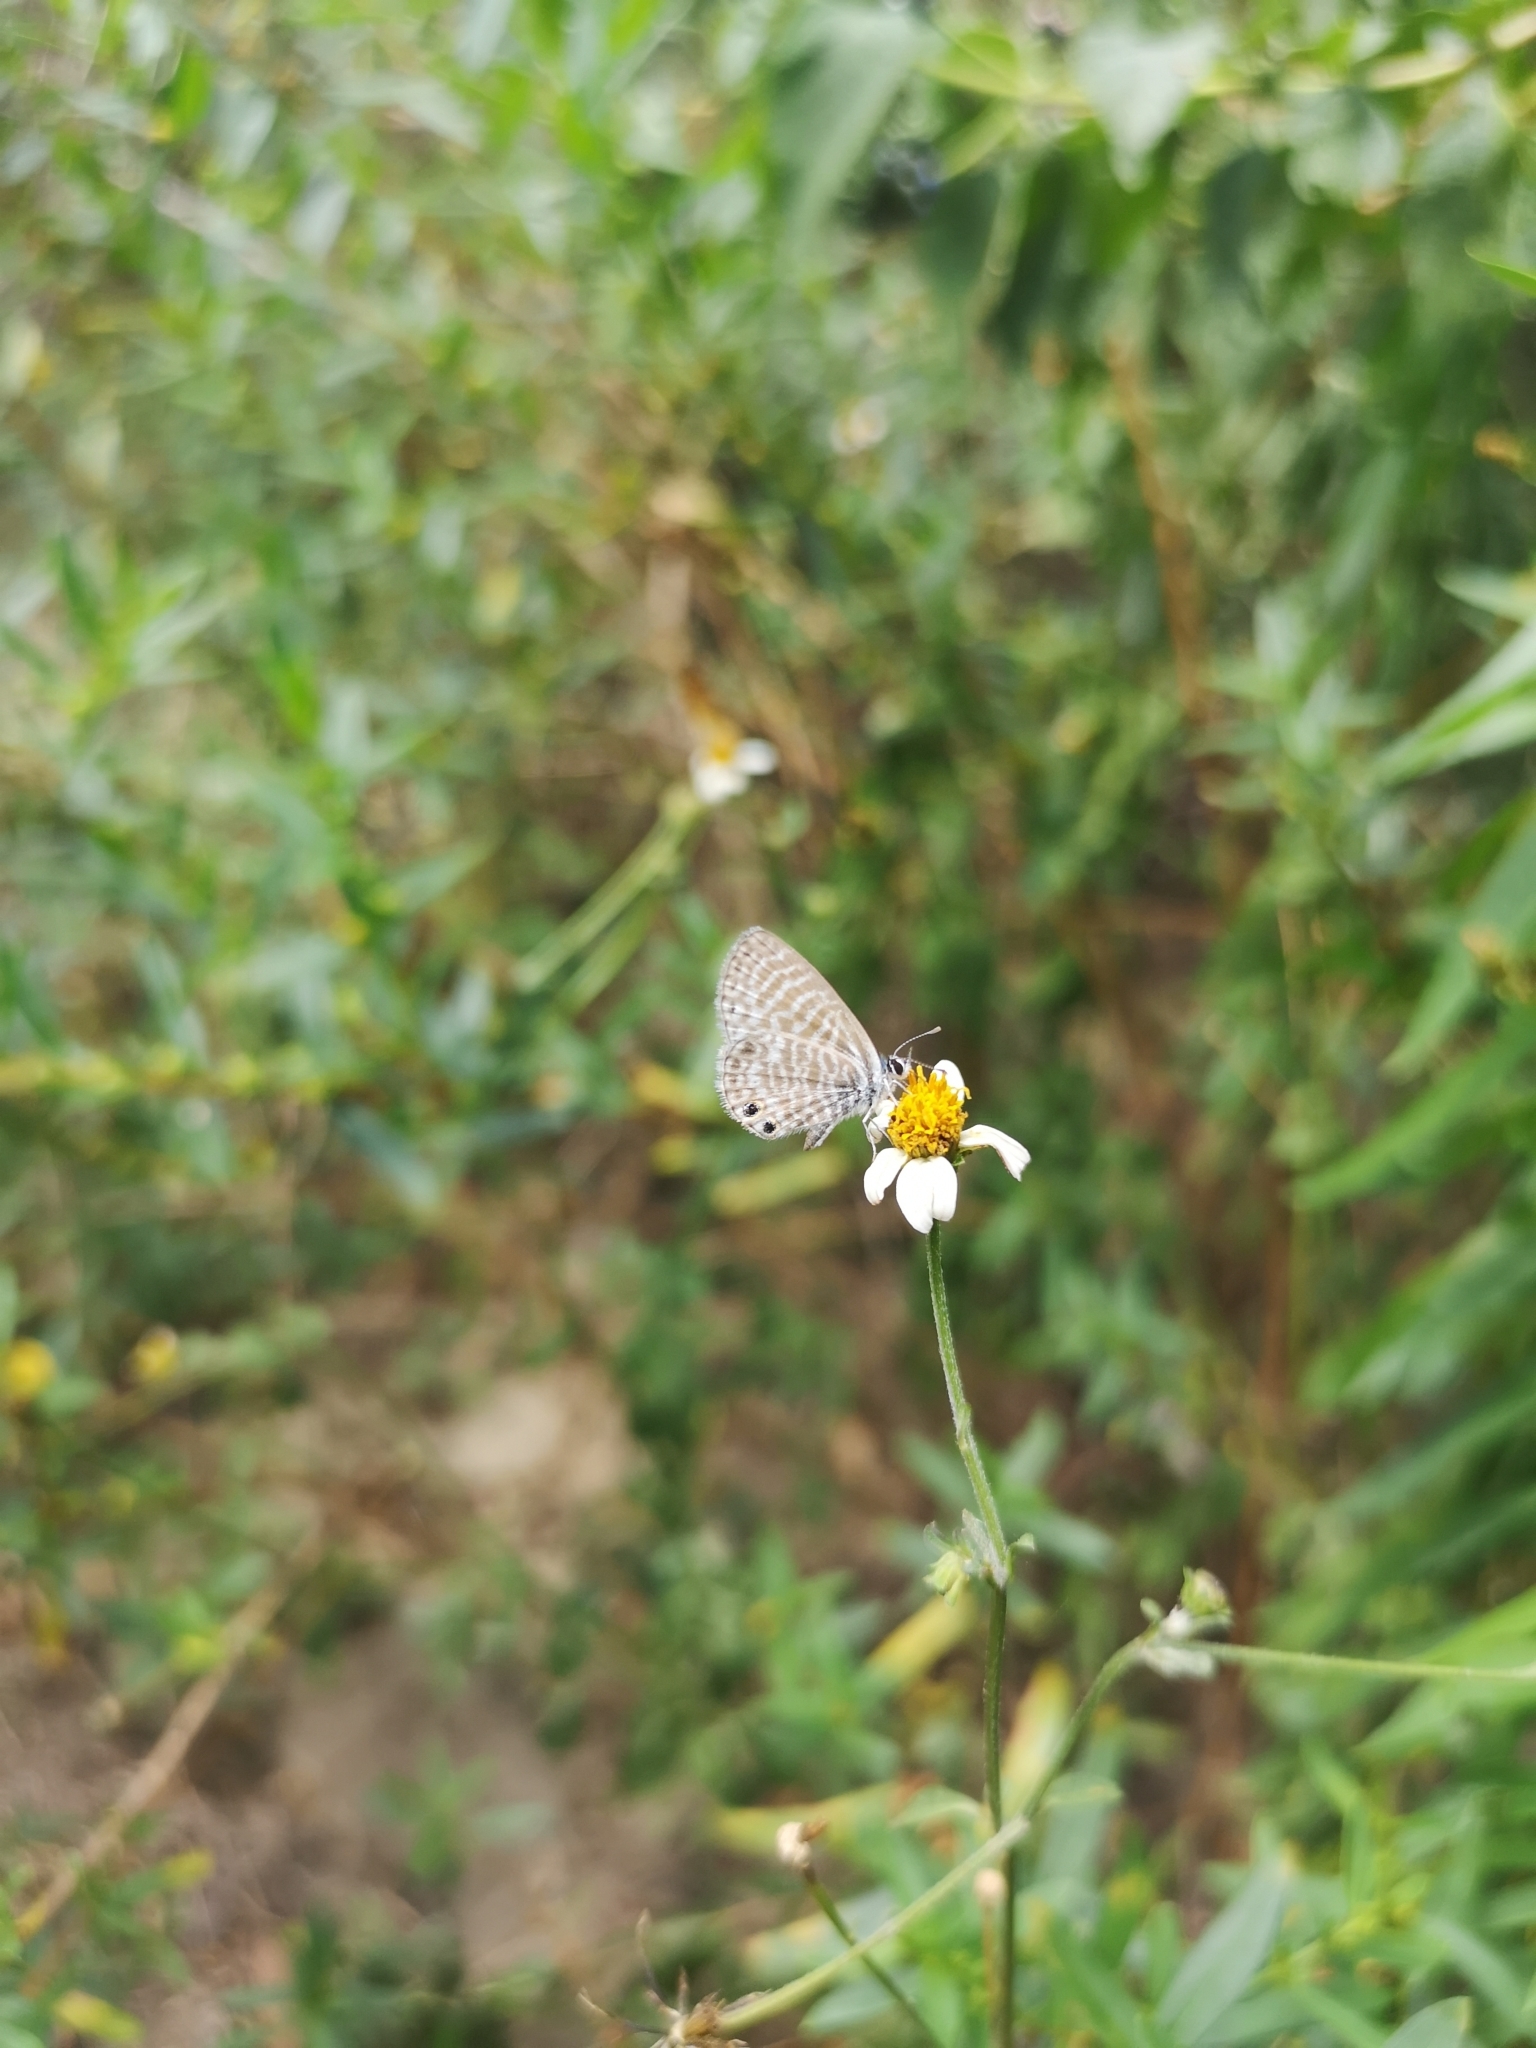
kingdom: Animalia
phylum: Arthropoda
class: Insecta
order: Lepidoptera
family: Lycaenidae
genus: Leptotes
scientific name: Leptotes marina
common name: Marine blue
